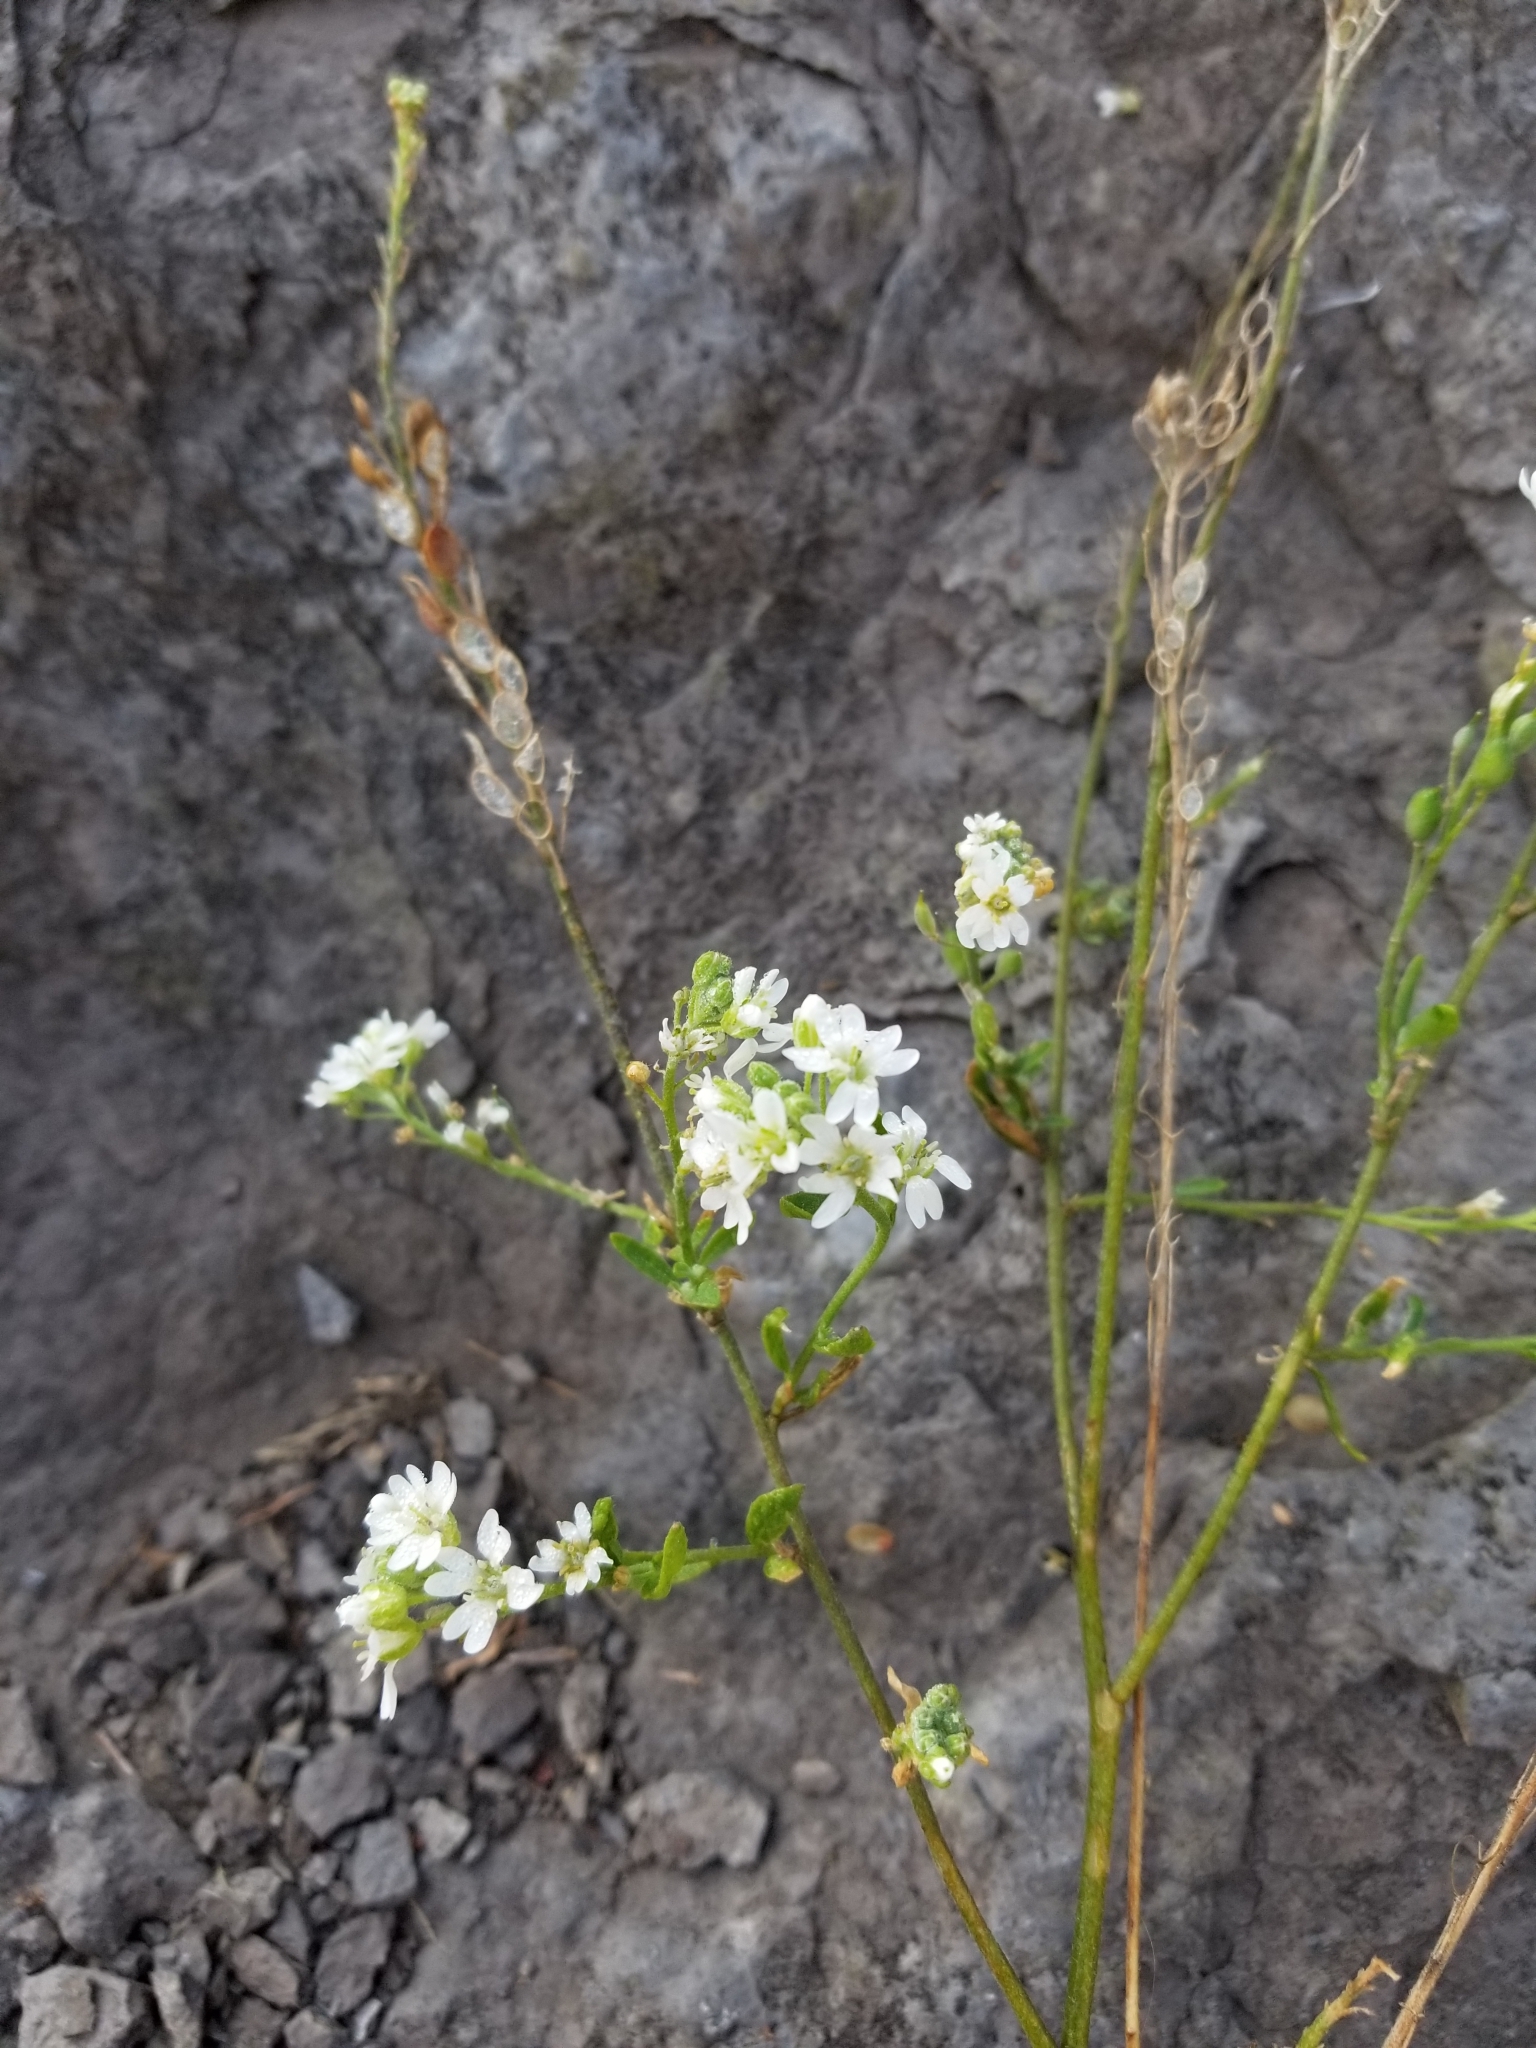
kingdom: Plantae
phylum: Tracheophyta
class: Magnoliopsida
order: Brassicales
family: Brassicaceae
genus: Berteroa
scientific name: Berteroa incana
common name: Hoary alison
